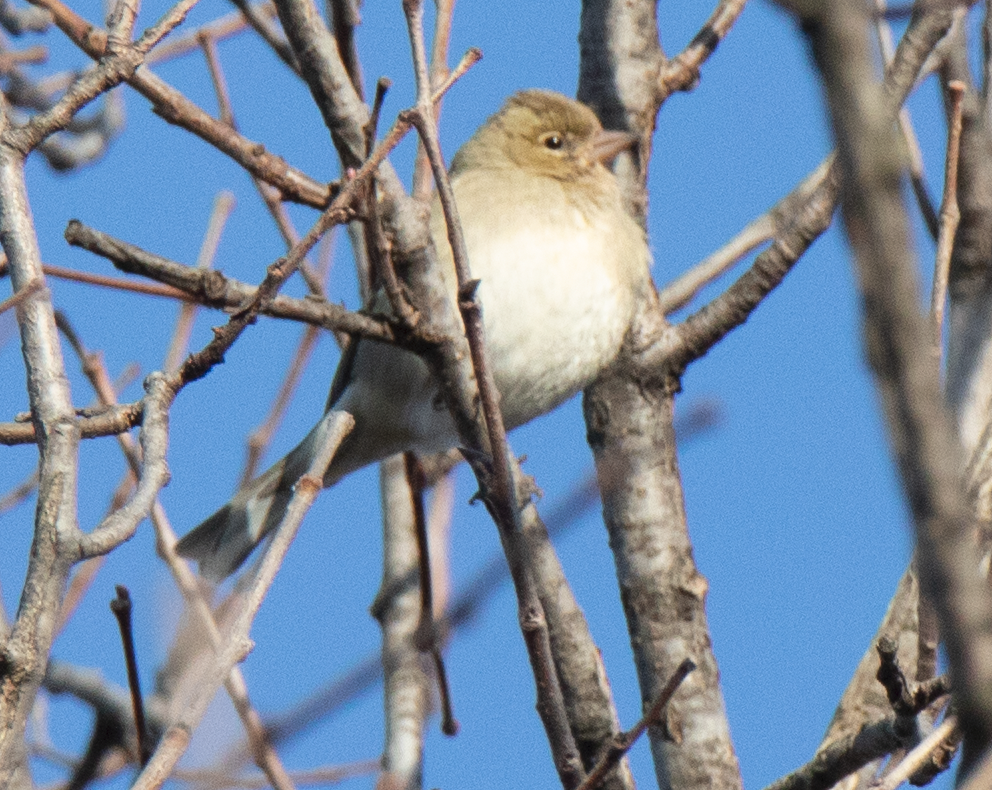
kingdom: Animalia
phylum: Chordata
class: Aves
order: Passeriformes
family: Fringillidae
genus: Fringilla
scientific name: Fringilla coelebs
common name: Common chaffinch
